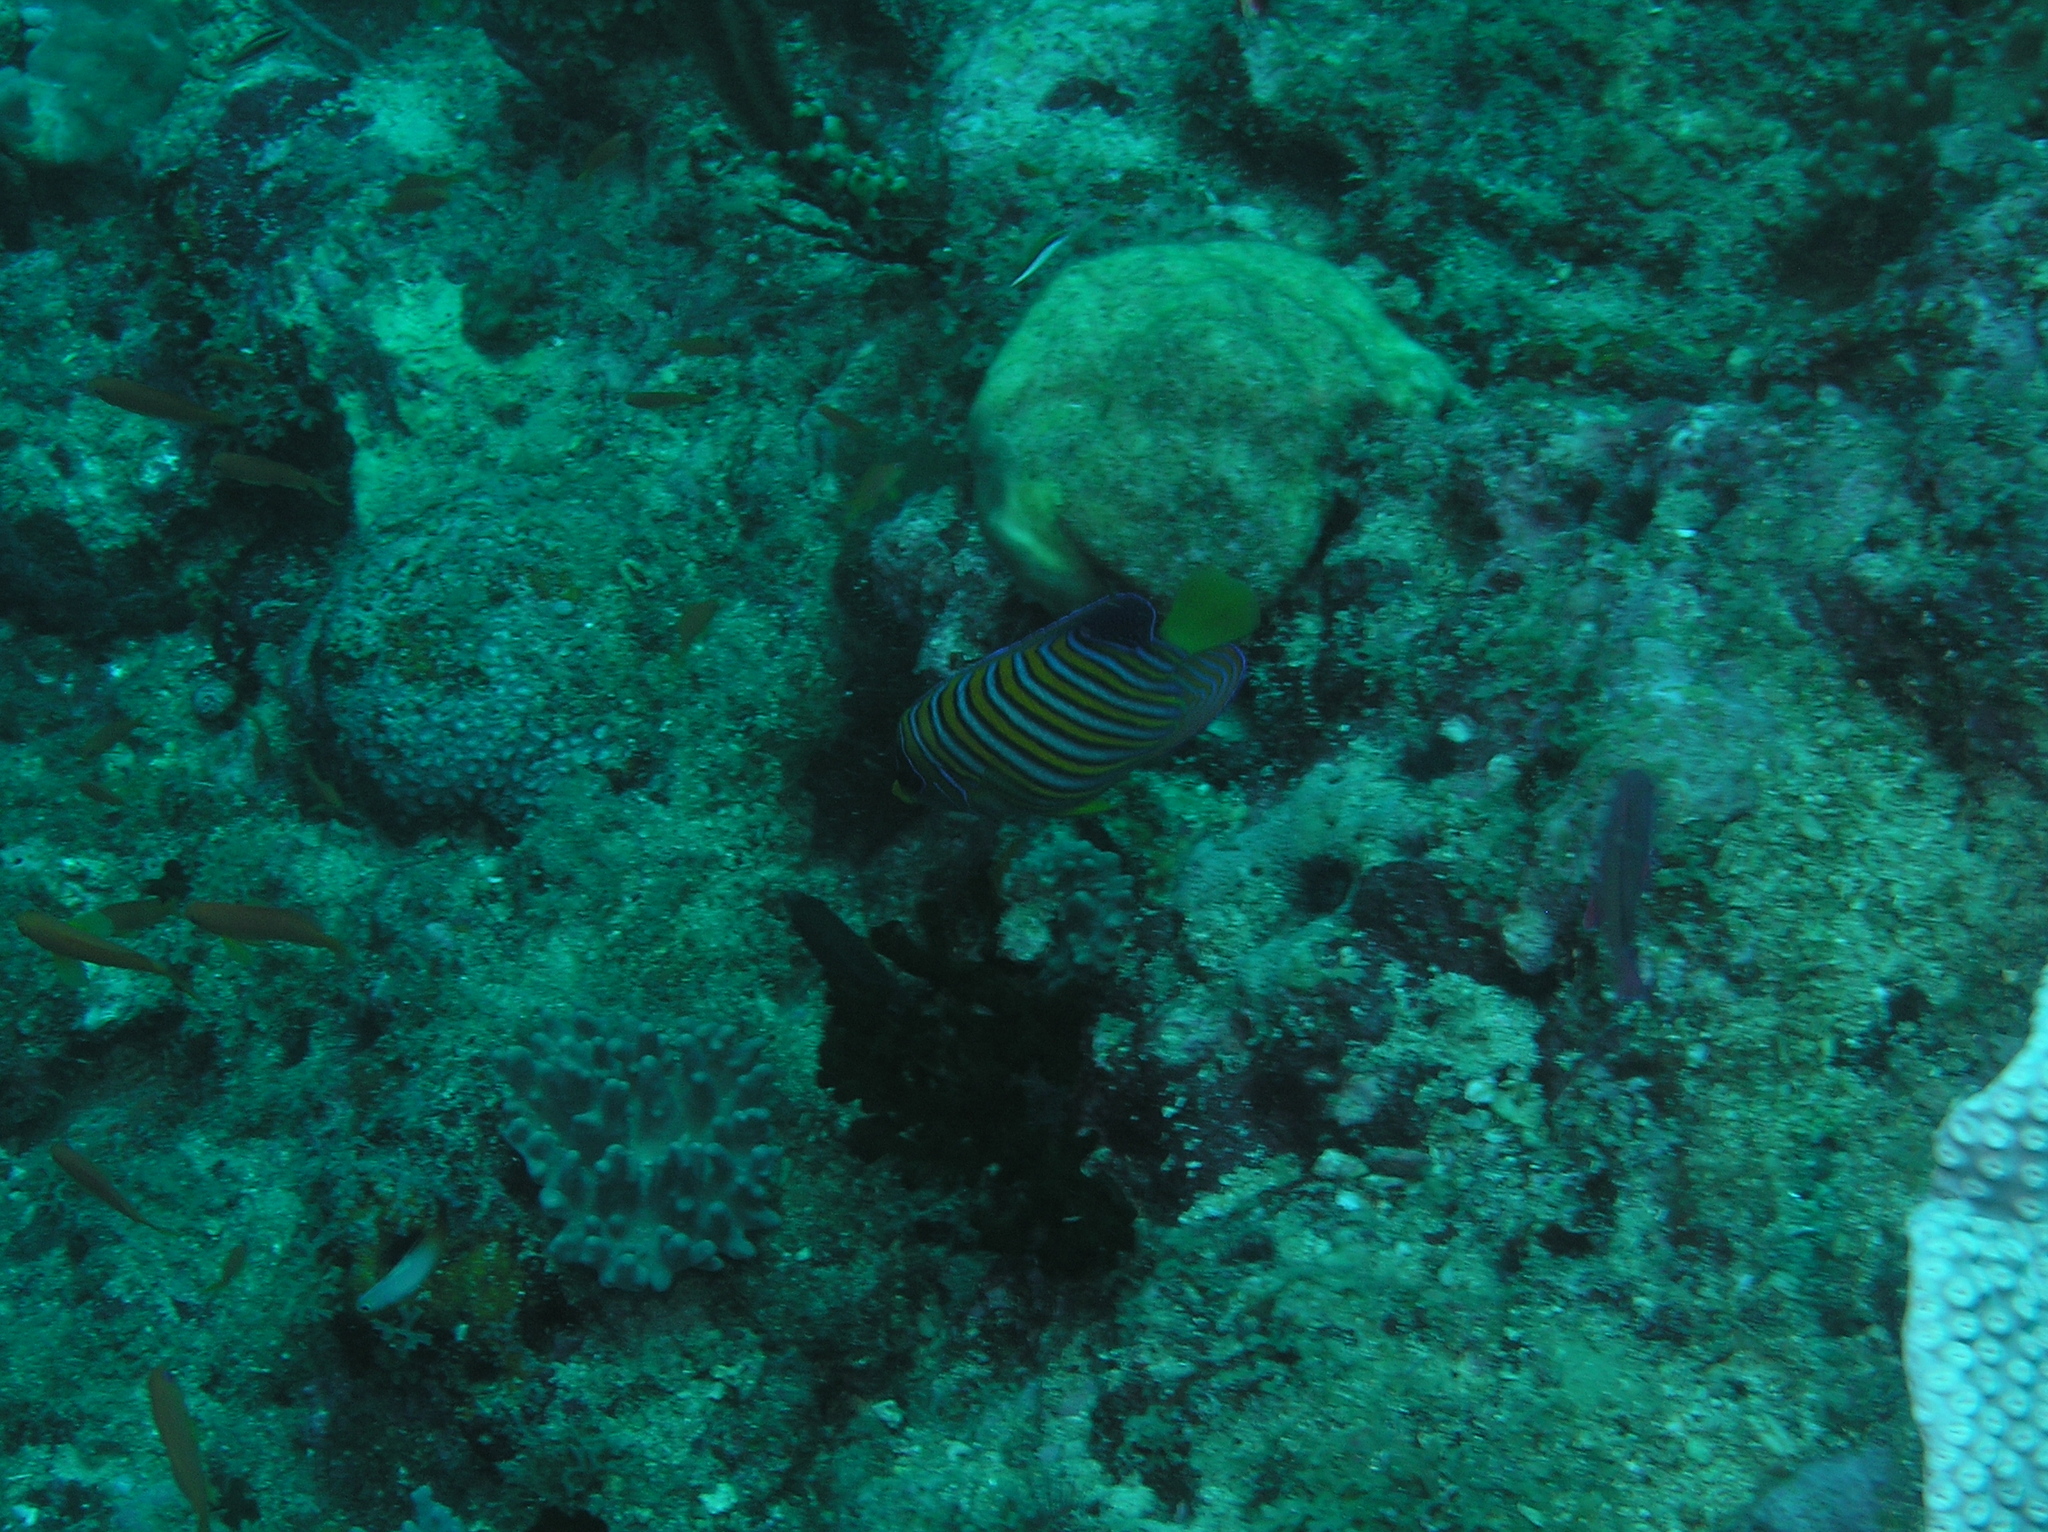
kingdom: Animalia
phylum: Chordata
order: Perciformes
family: Pomacanthidae
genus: Pygoplites
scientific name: Pygoplites diacanthus
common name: Regal angelfish
